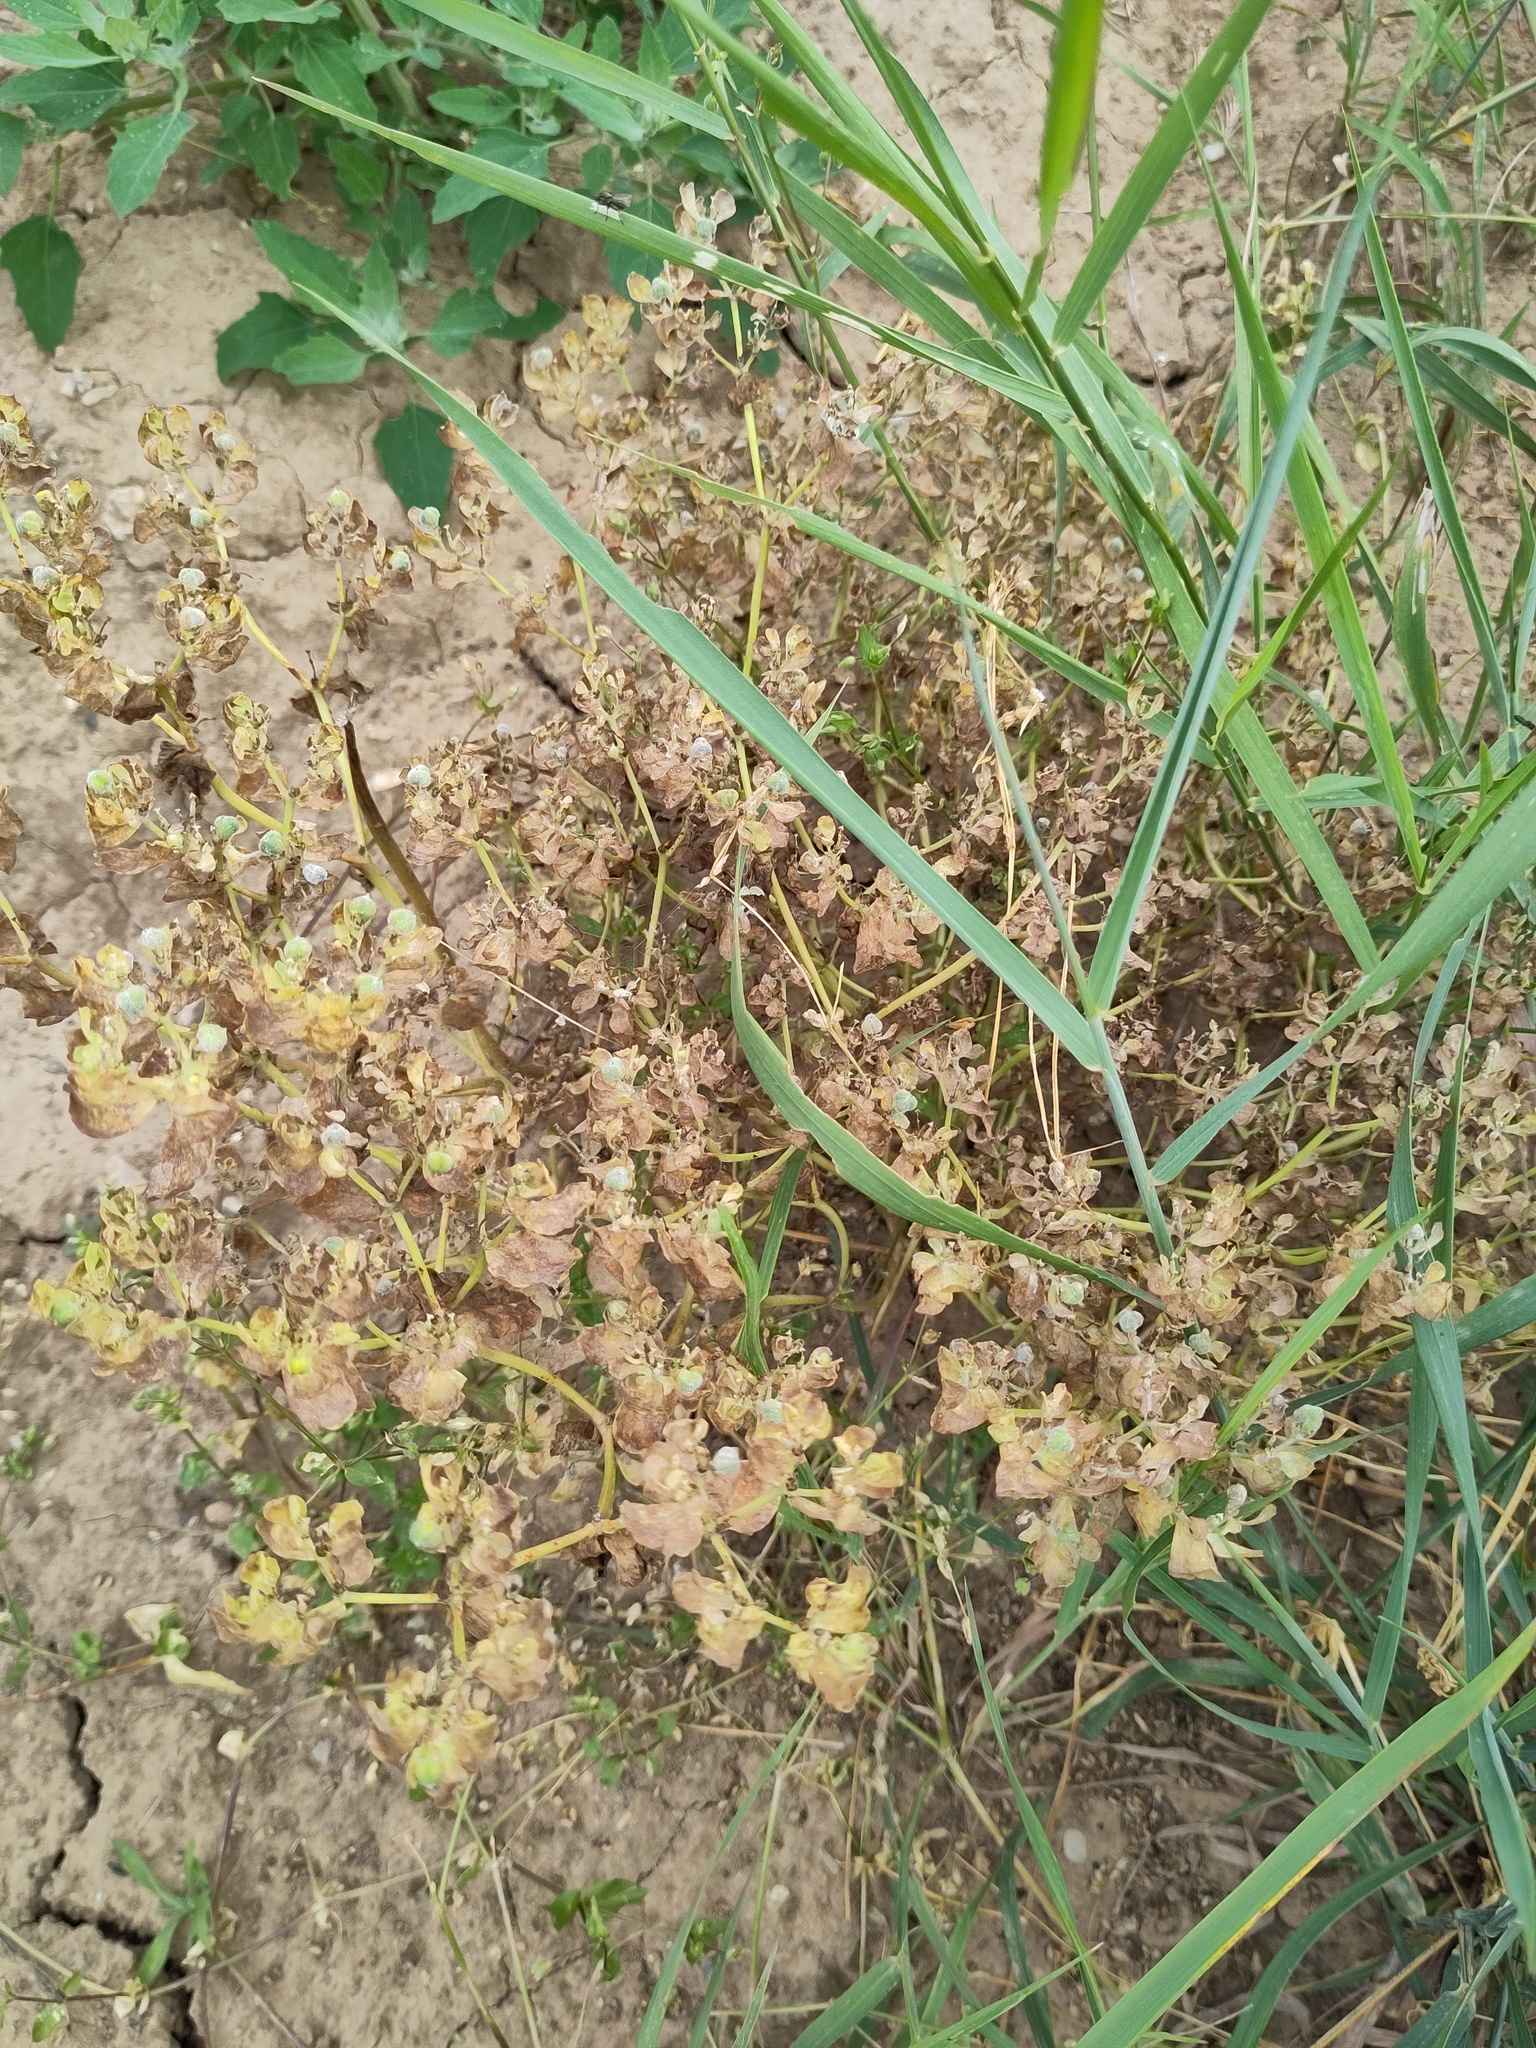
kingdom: Plantae
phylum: Tracheophyta
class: Magnoliopsida
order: Malpighiales
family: Euphorbiaceae
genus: Euphorbia
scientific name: Euphorbia helioscopia
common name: Sun spurge
